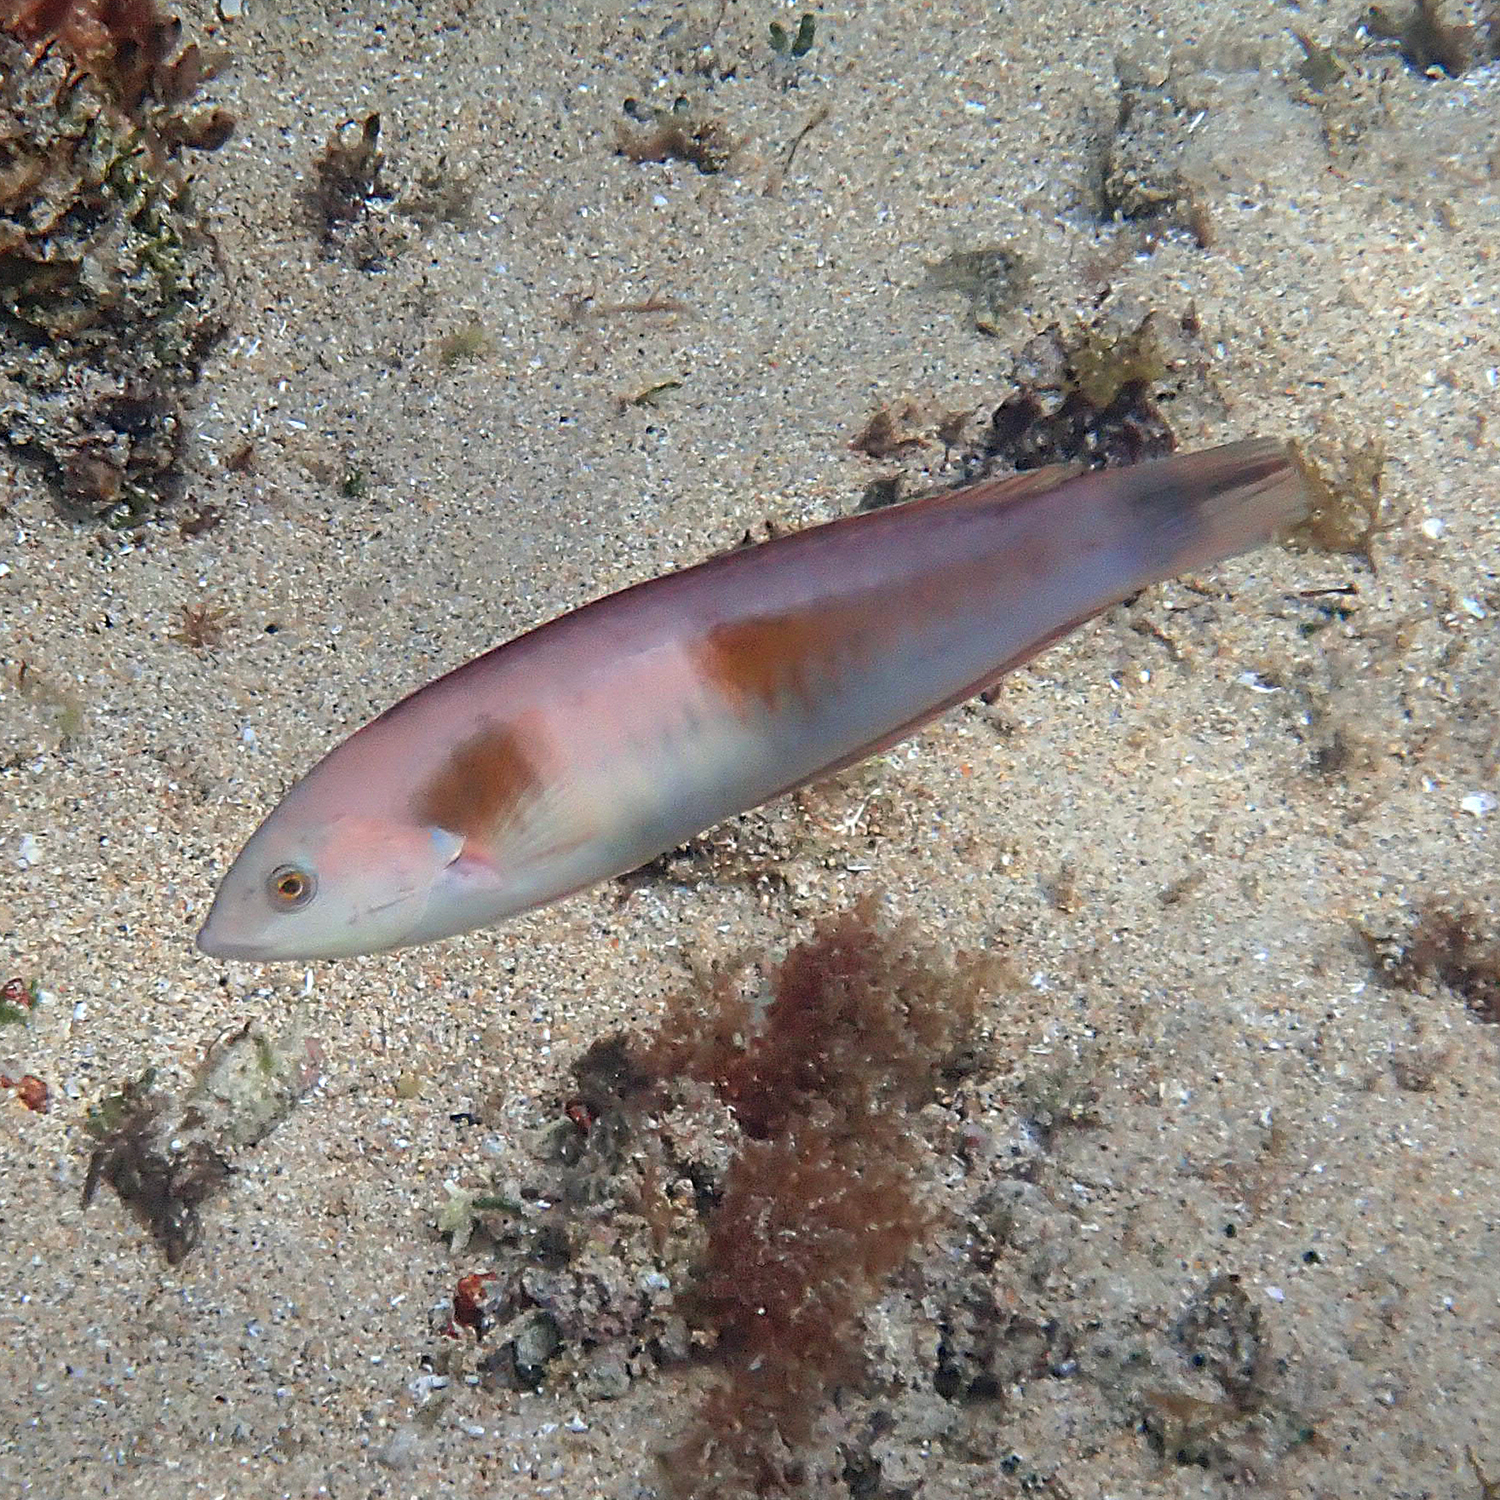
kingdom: Animalia
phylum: Chordata
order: Perciformes
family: Labridae
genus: Coris
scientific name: Coris sandeyeri
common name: Sandager's wrasse
